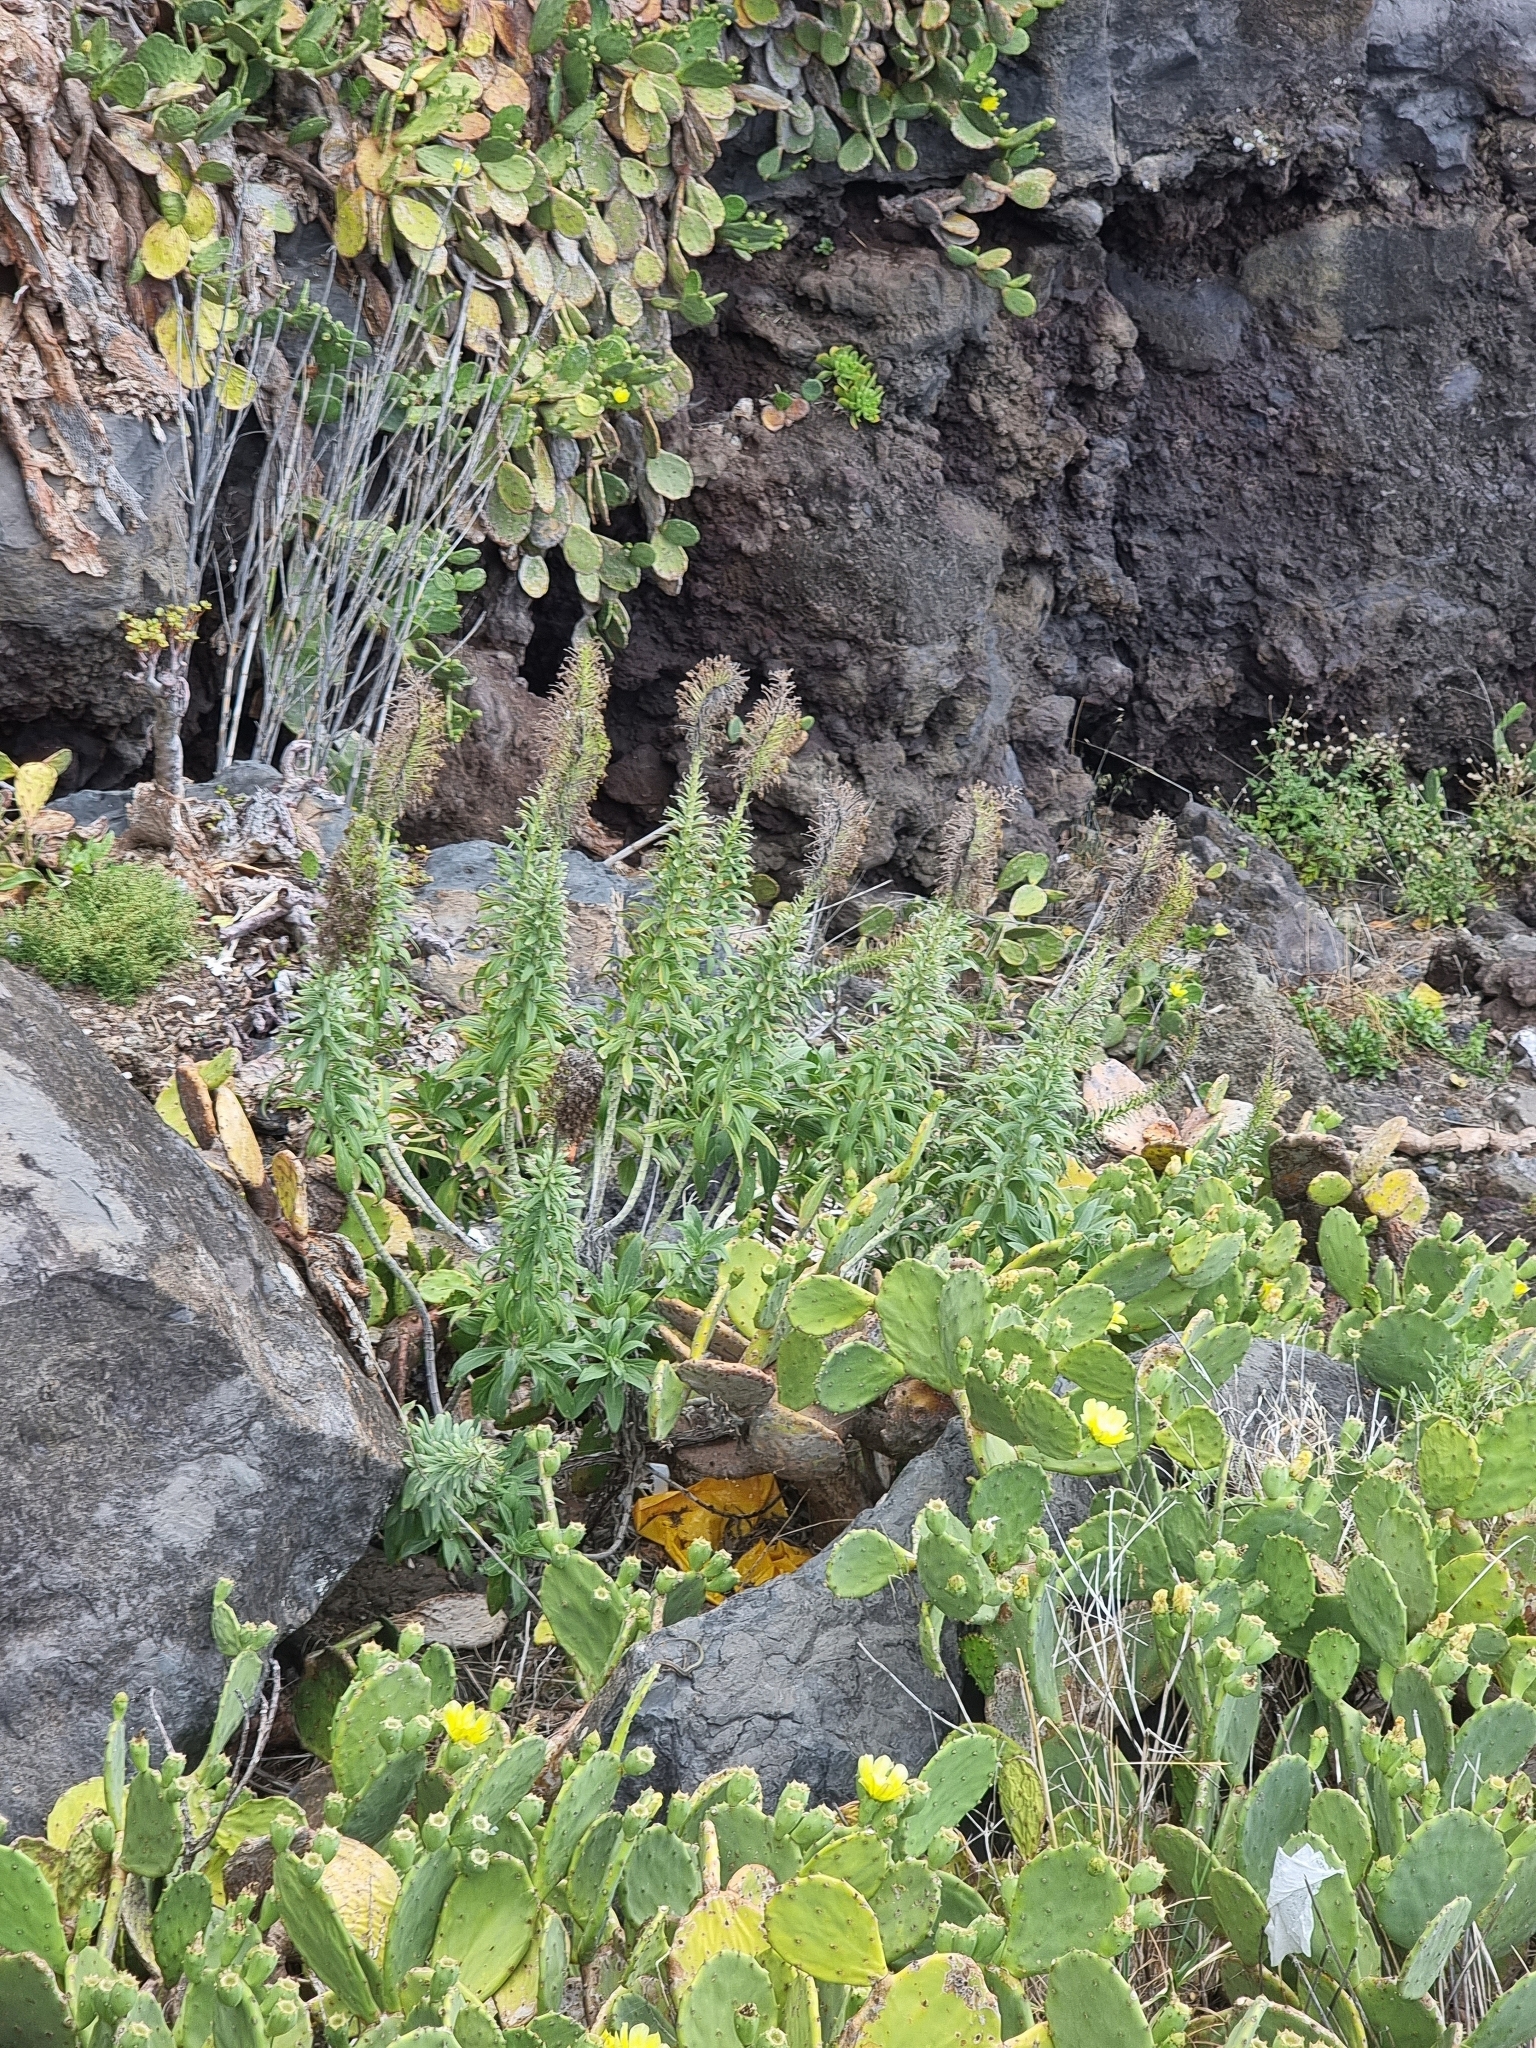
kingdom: Plantae
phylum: Tracheophyta
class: Magnoliopsida
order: Boraginales
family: Boraginaceae
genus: Echium
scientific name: Echium nervosum
